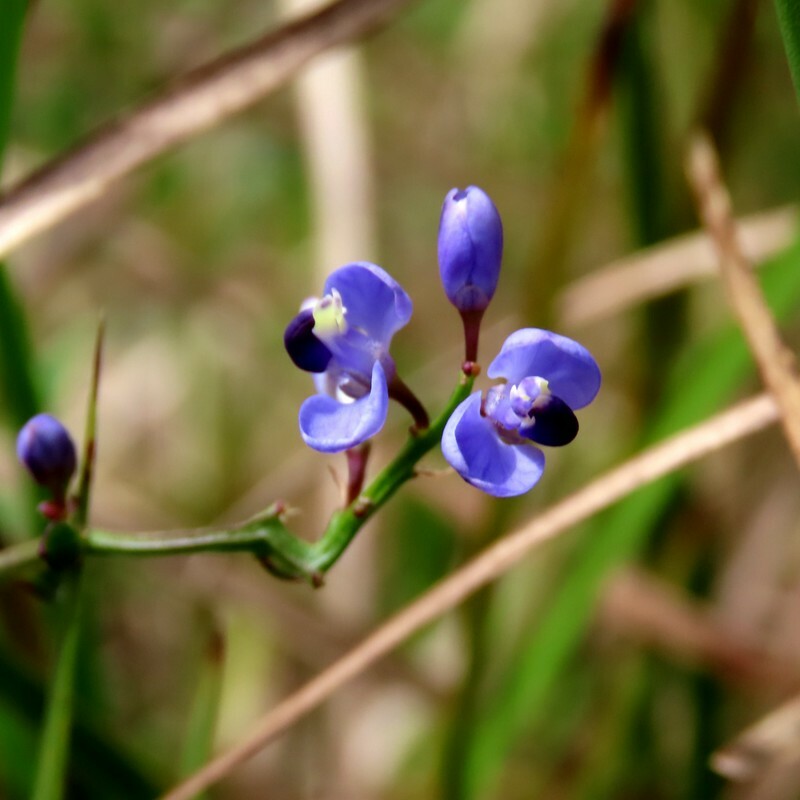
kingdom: Plantae
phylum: Tracheophyta
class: Magnoliopsida
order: Fabales
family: Polygalaceae
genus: Comesperma
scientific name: Comesperma volubile
